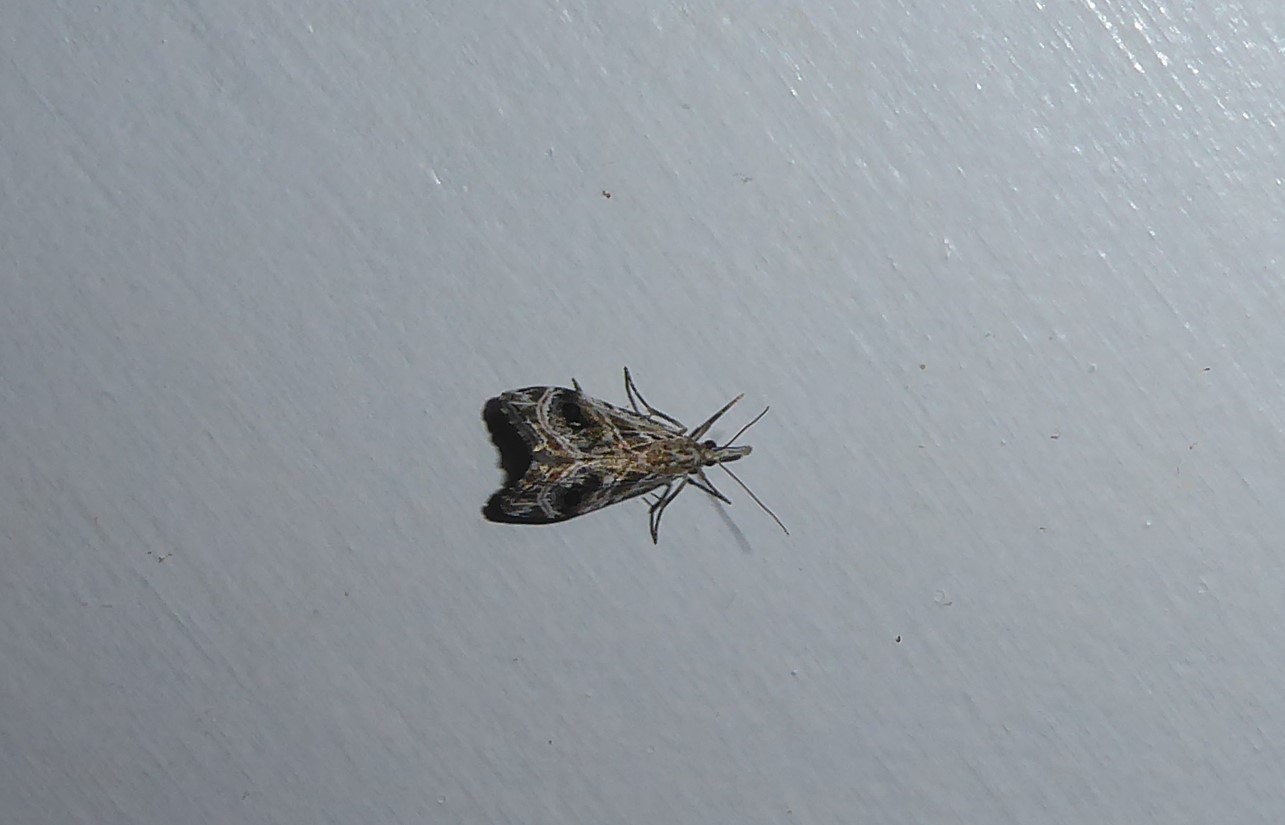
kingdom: Animalia
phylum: Arthropoda
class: Insecta
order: Lepidoptera
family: Crambidae
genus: Gadira
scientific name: Gadira acerella
